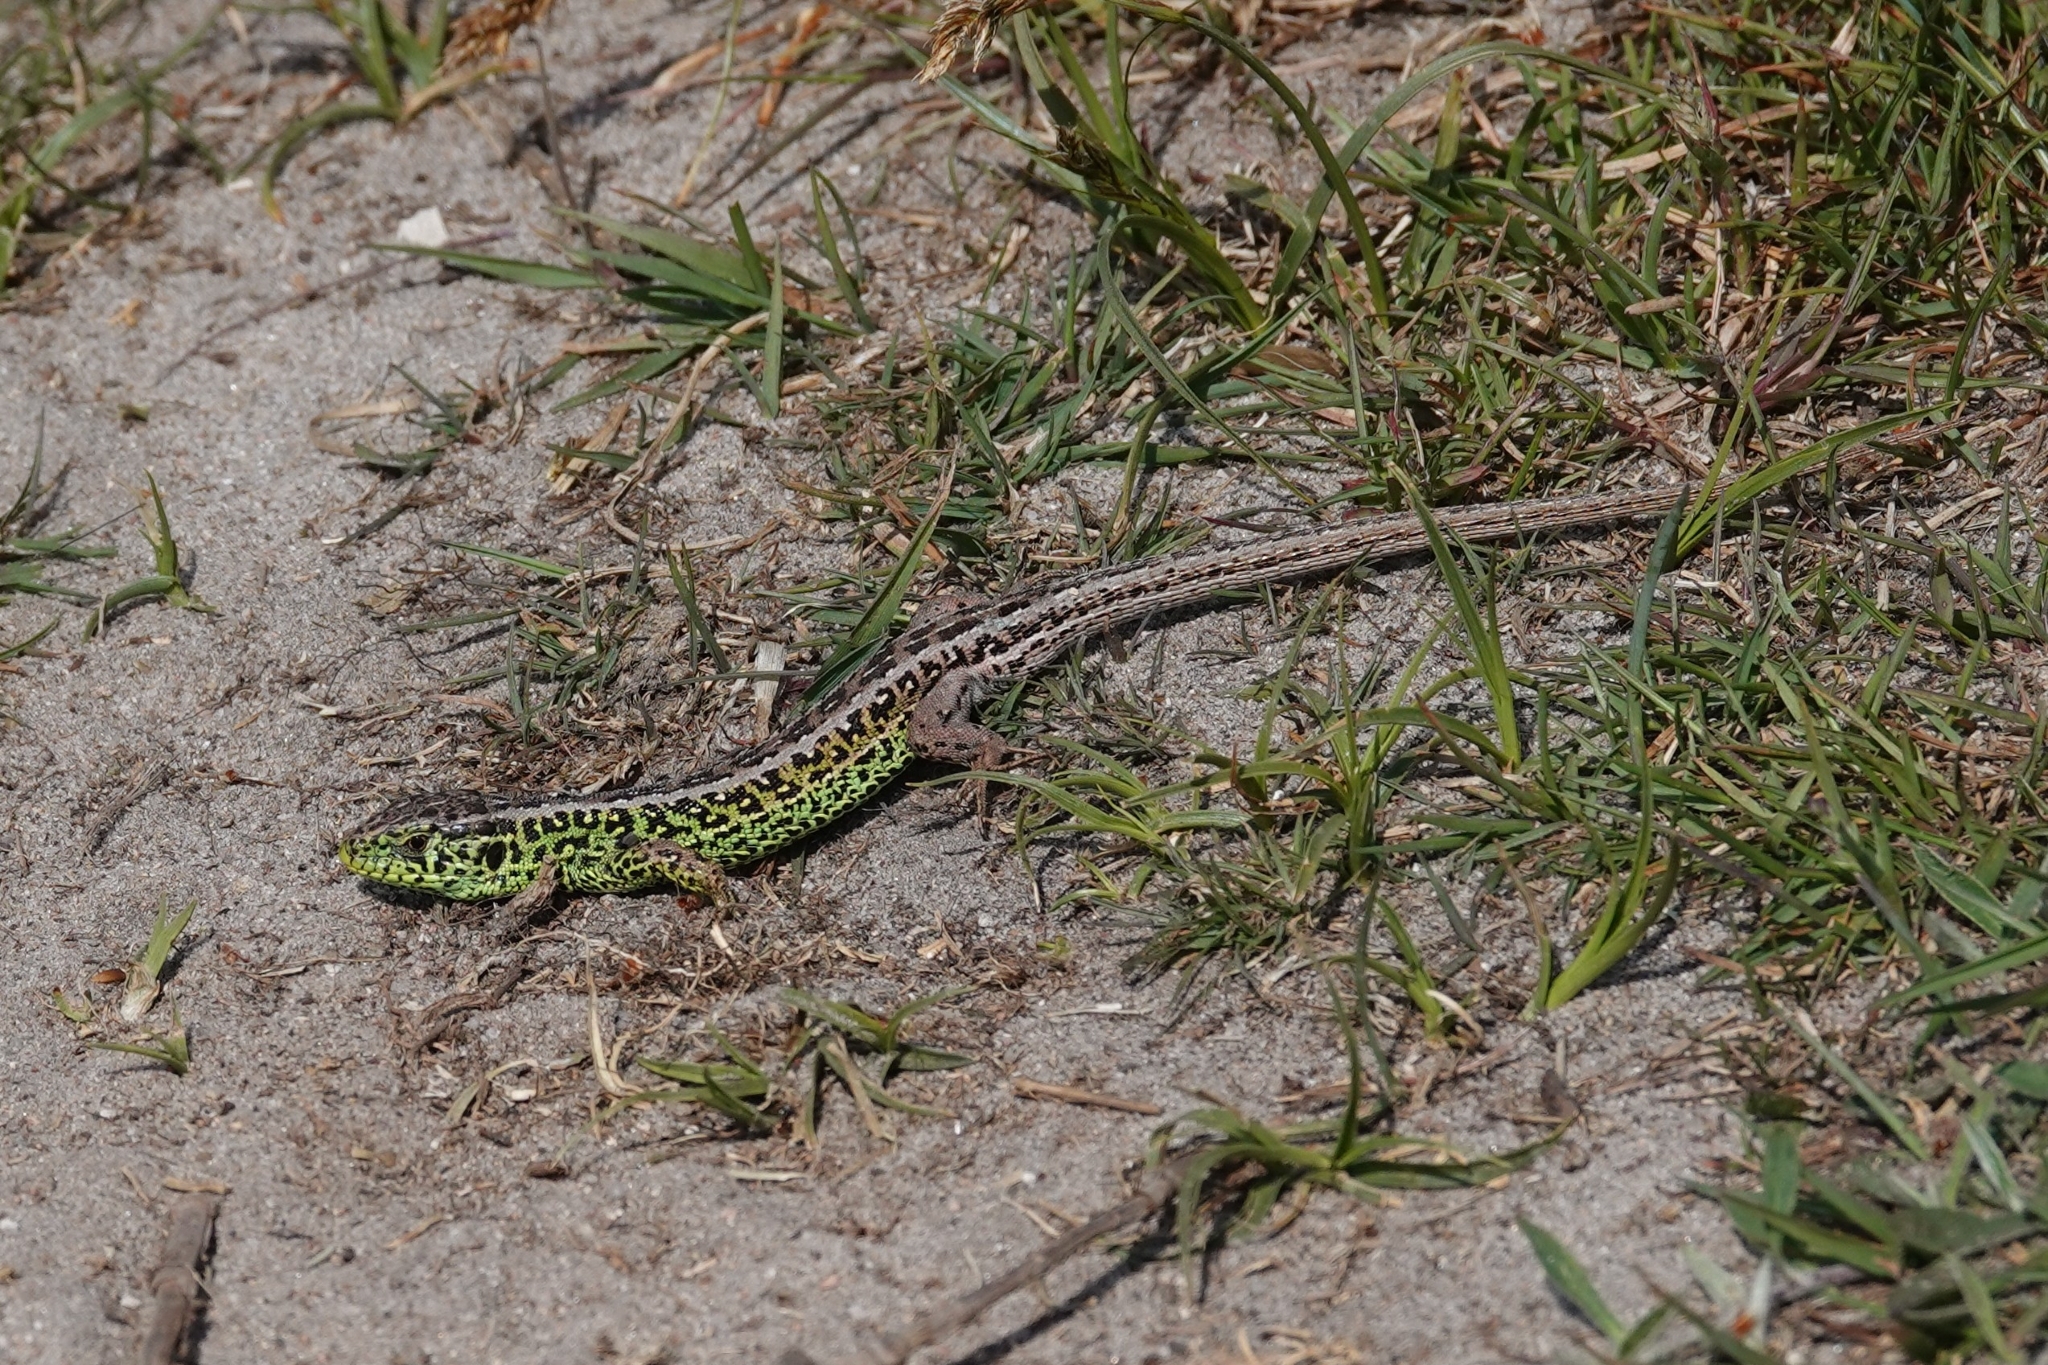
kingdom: Animalia
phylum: Chordata
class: Squamata
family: Lacertidae
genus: Lacerta
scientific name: Lacerta agilis
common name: Sand lizard
